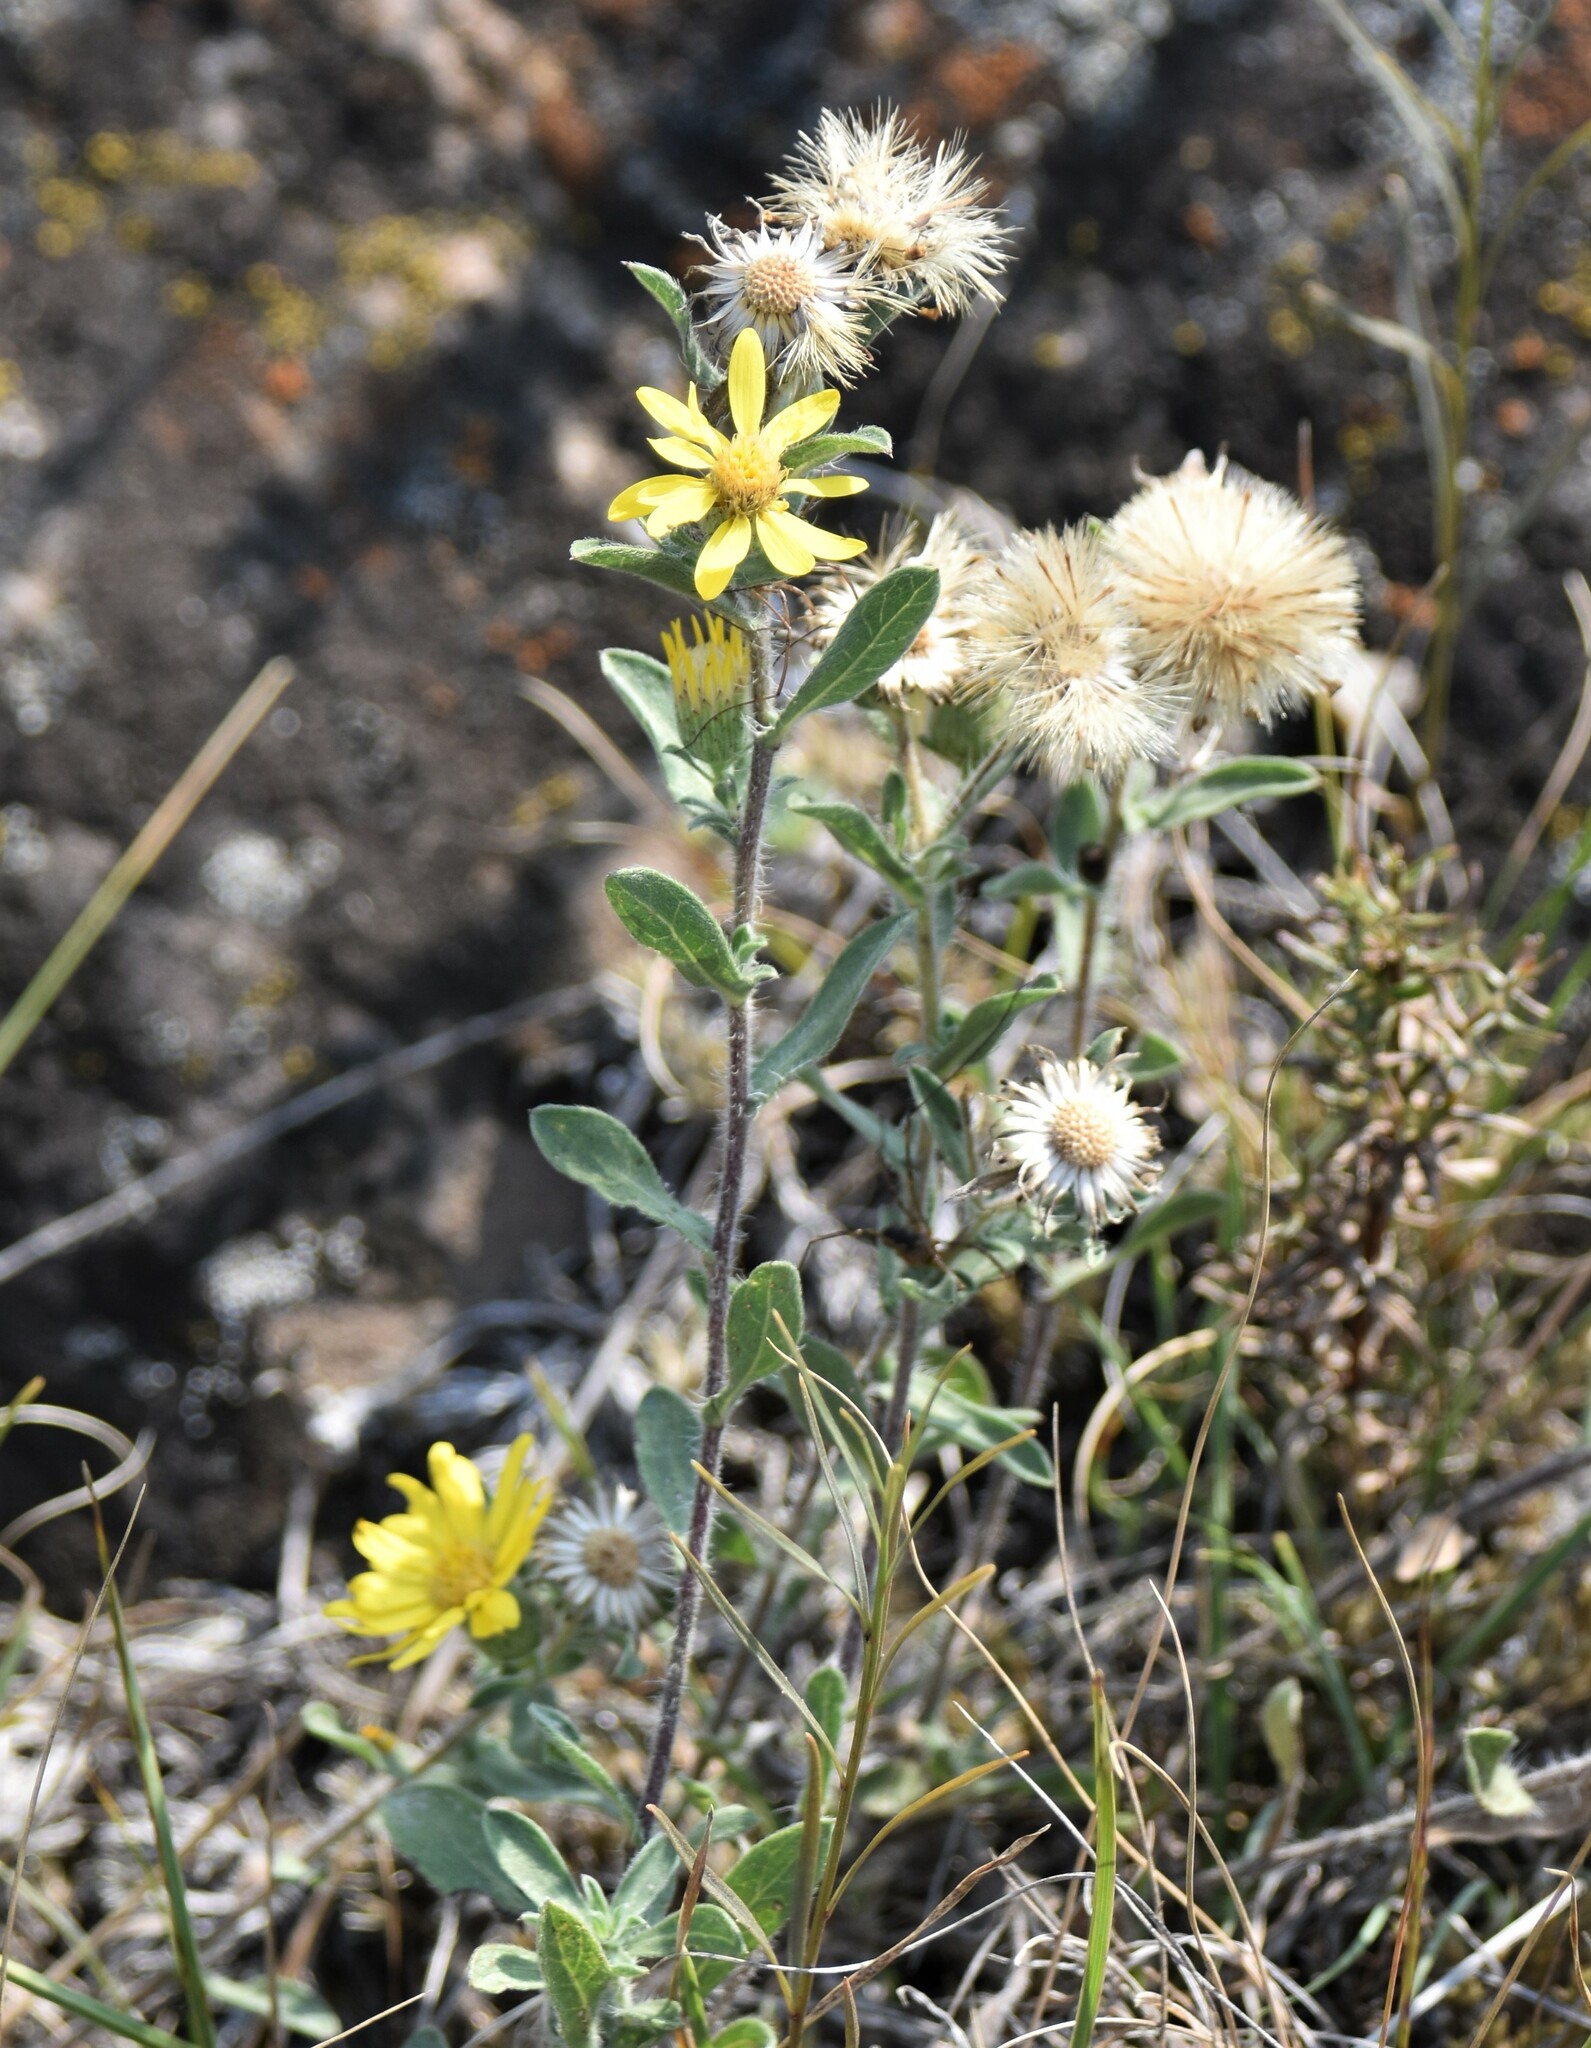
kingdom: Plantae
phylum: Tracheophyta
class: Magnoliopsida
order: Asterales
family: Asteraceae
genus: Heterotheca
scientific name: Heterotheca villosa
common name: Hairy false goldenaster
